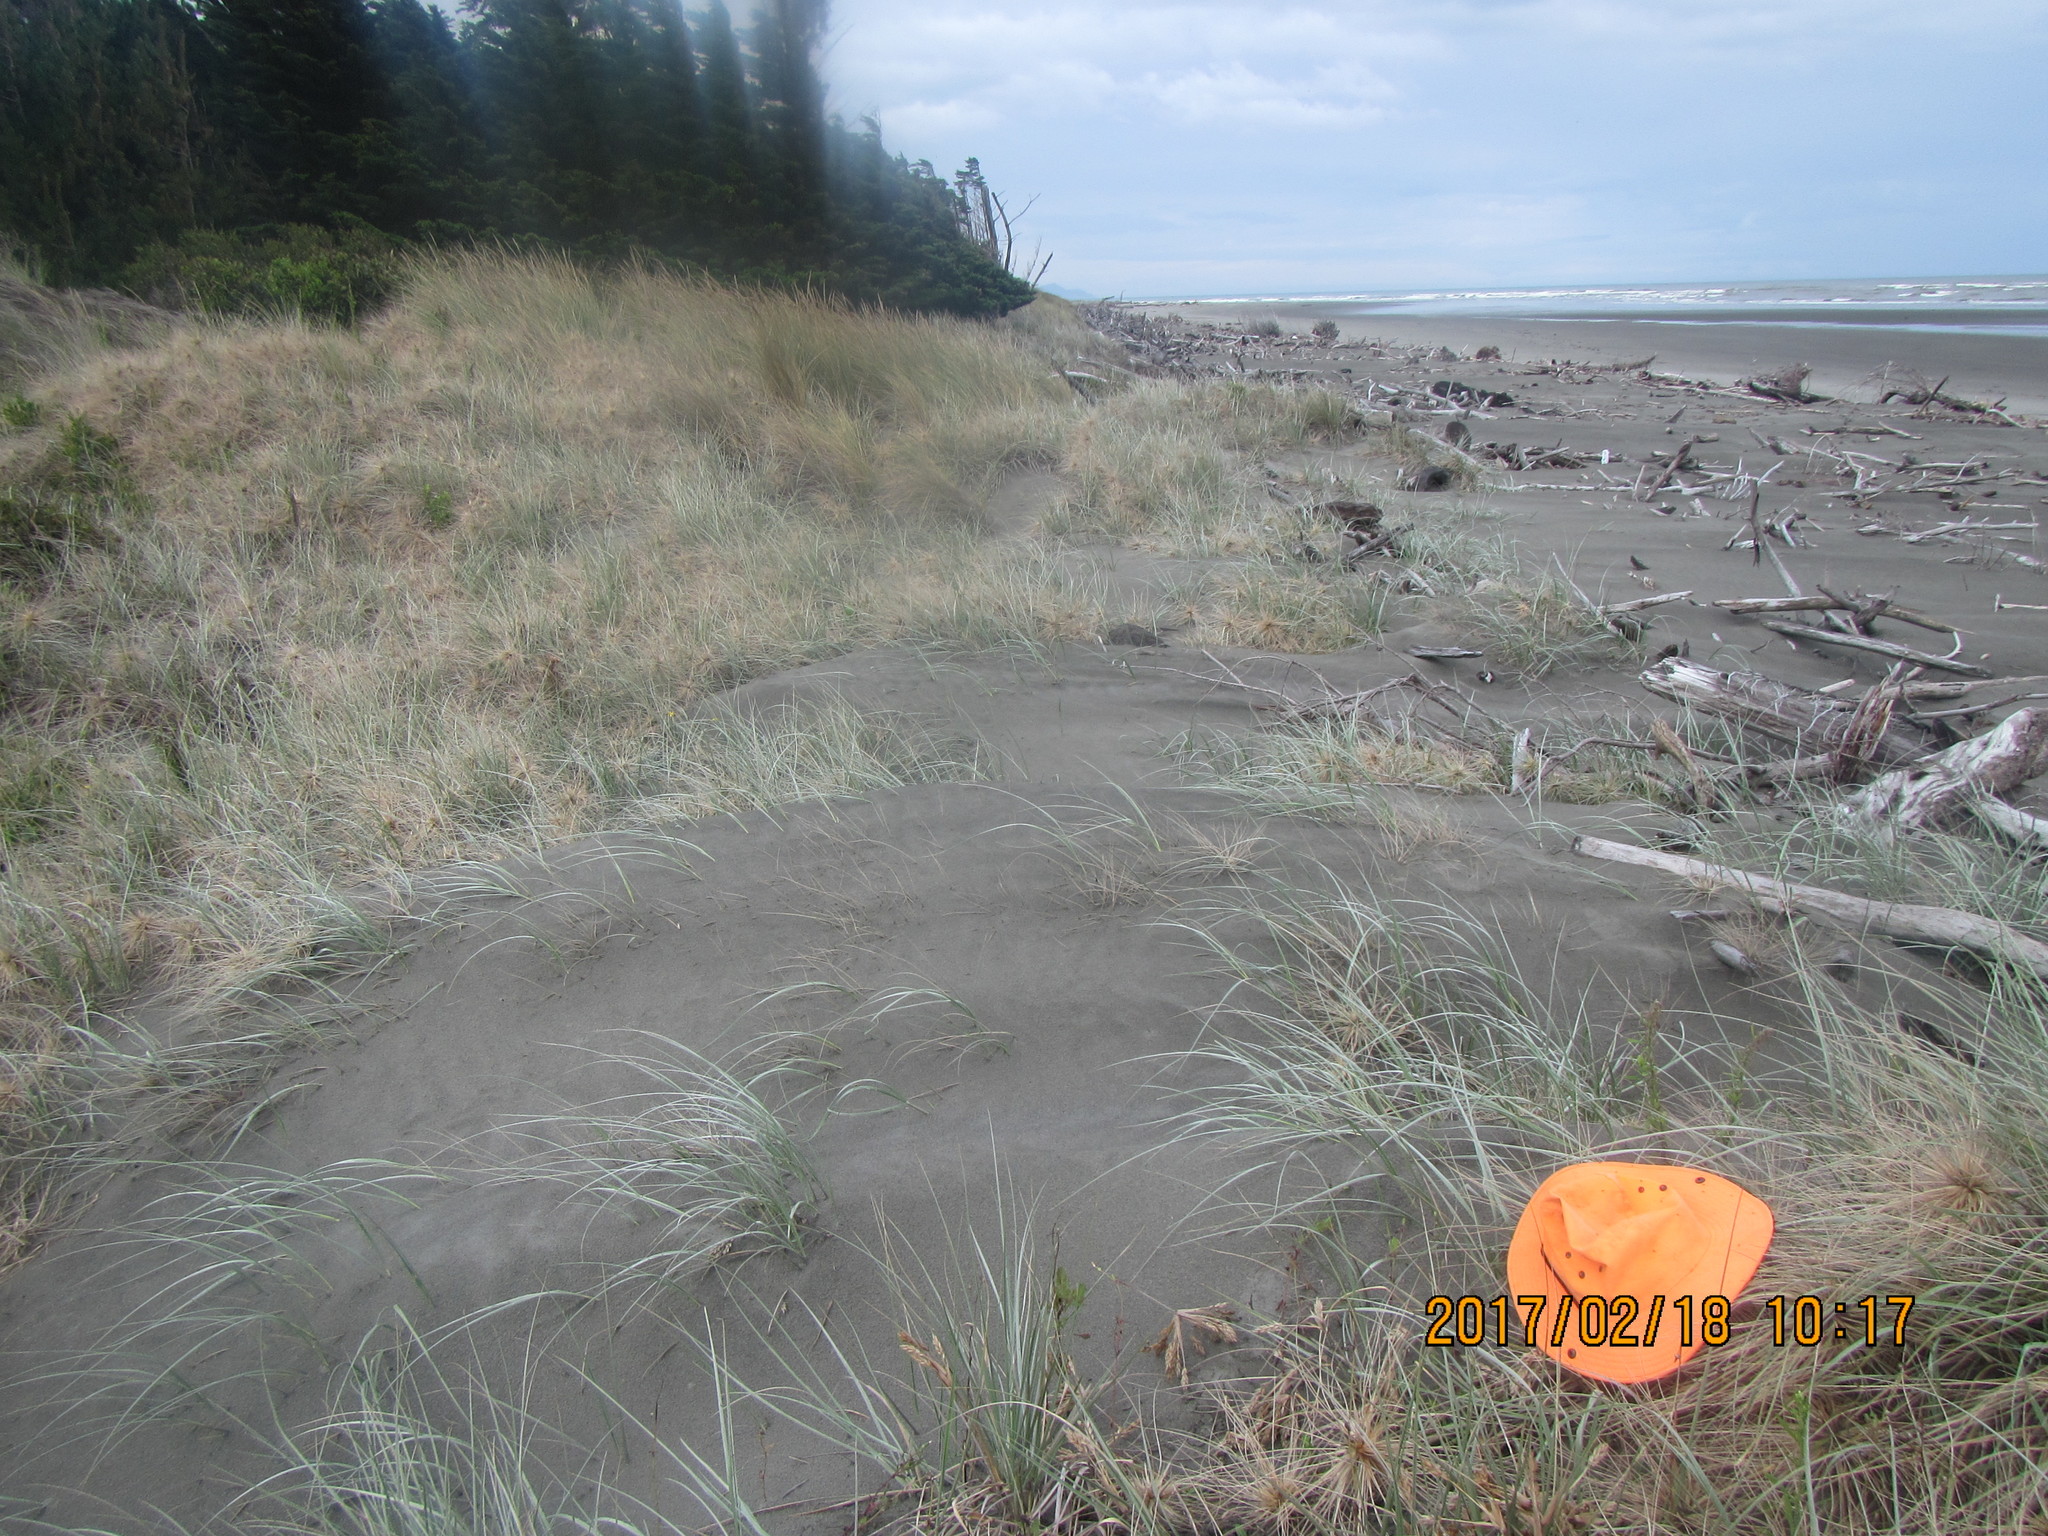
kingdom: Animalia
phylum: Arthropoda
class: Arachnida
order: Araneae
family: Theridiidae
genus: Cryptachaea
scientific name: Cryptachaea veruculata
